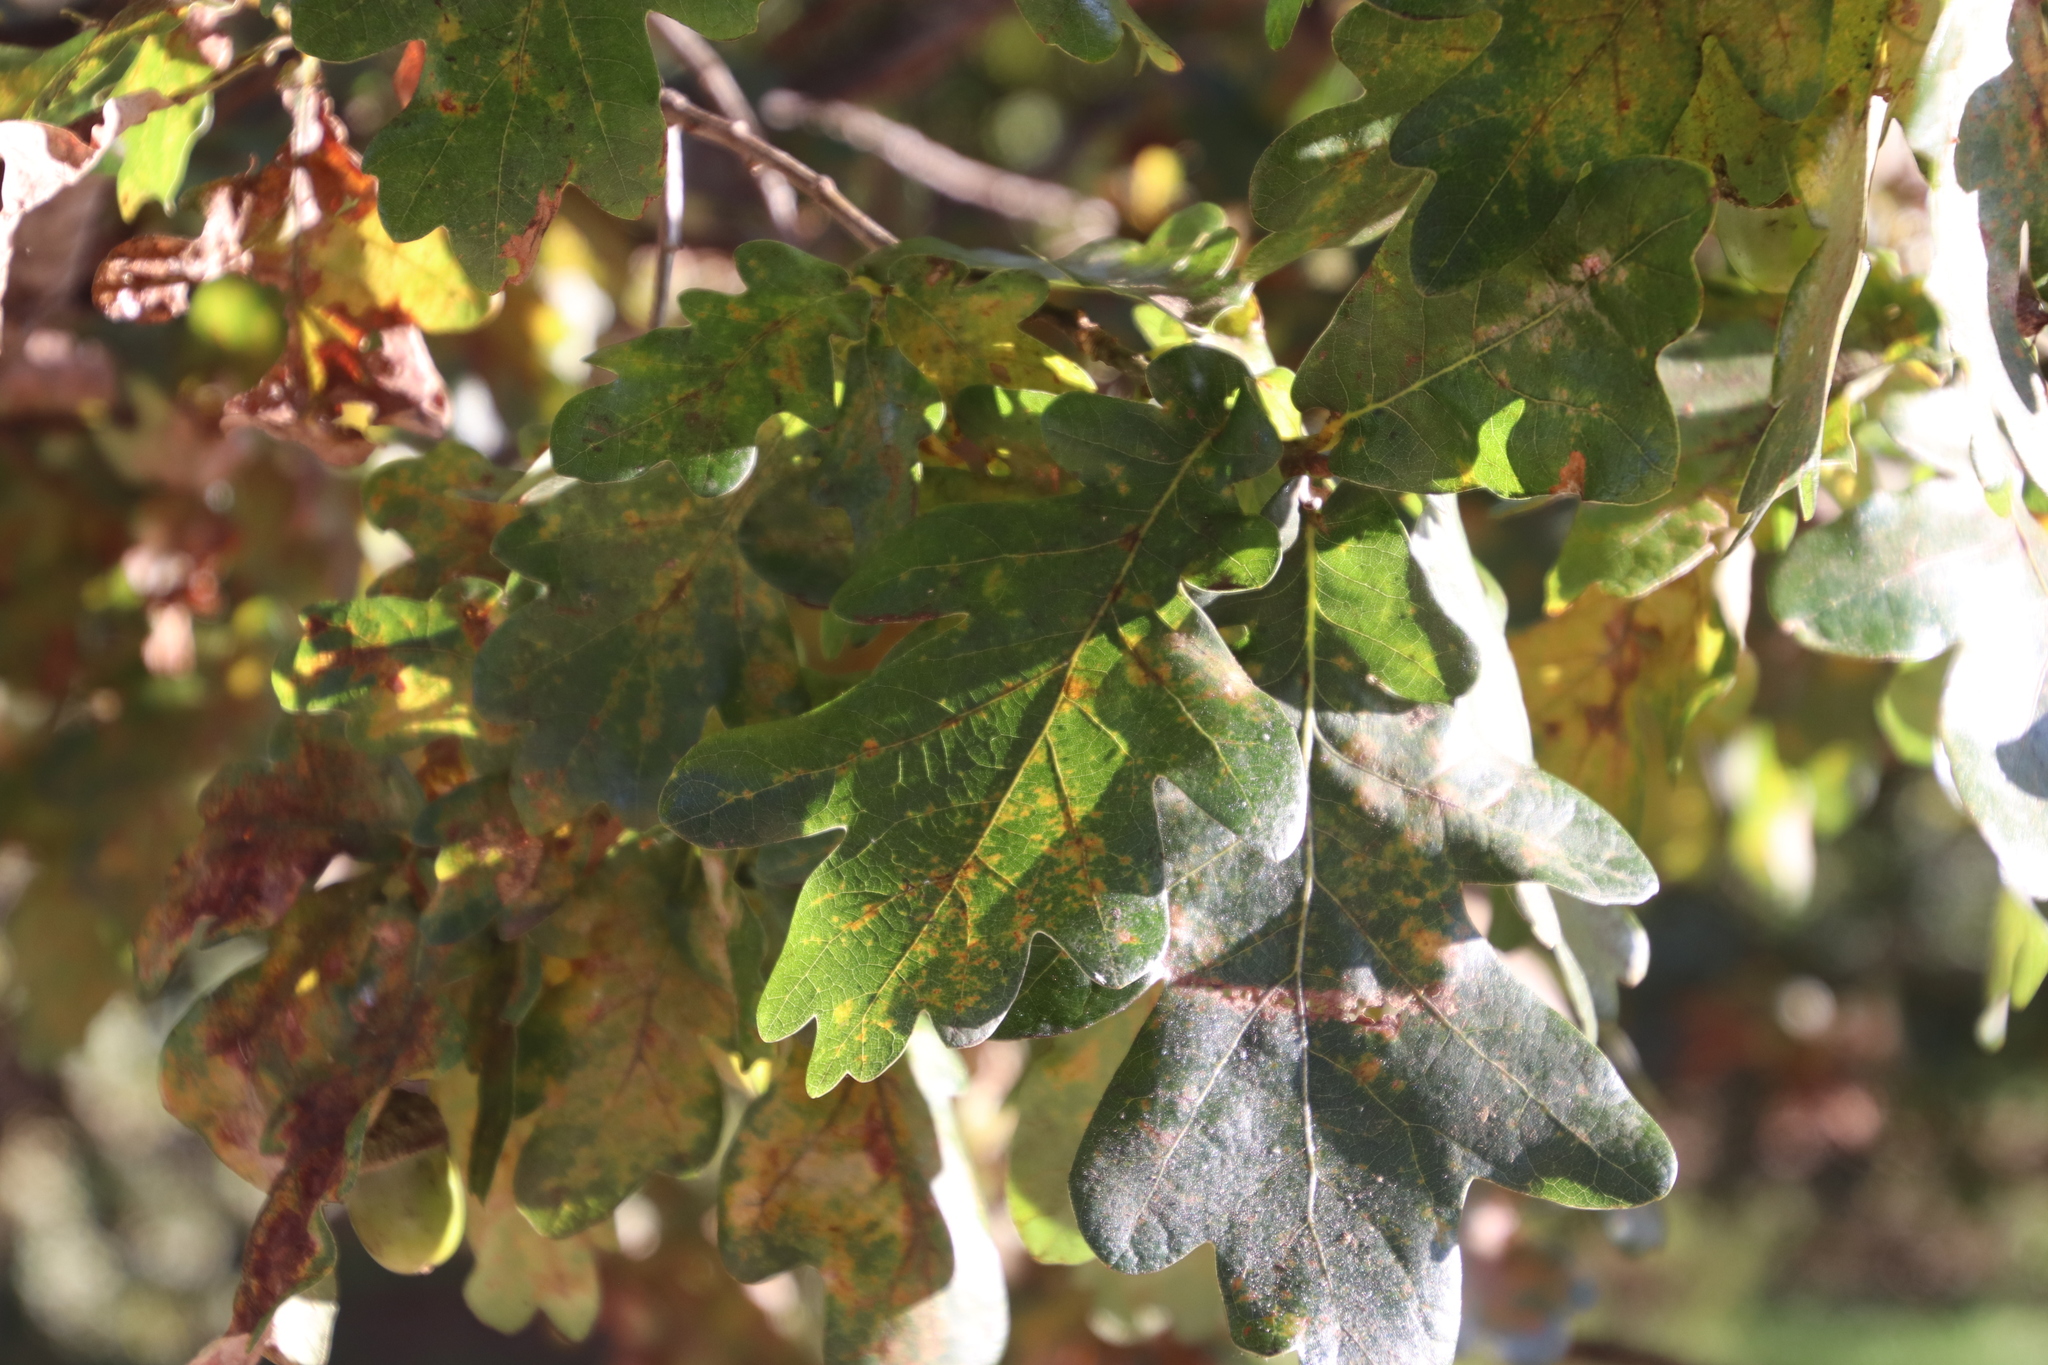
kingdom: Plantae
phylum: Tracheophyta
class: Magnoliopsida
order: Fagales
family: Fagaceae
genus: Quercus
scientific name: Quercus robur
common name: Pedunculate oak
